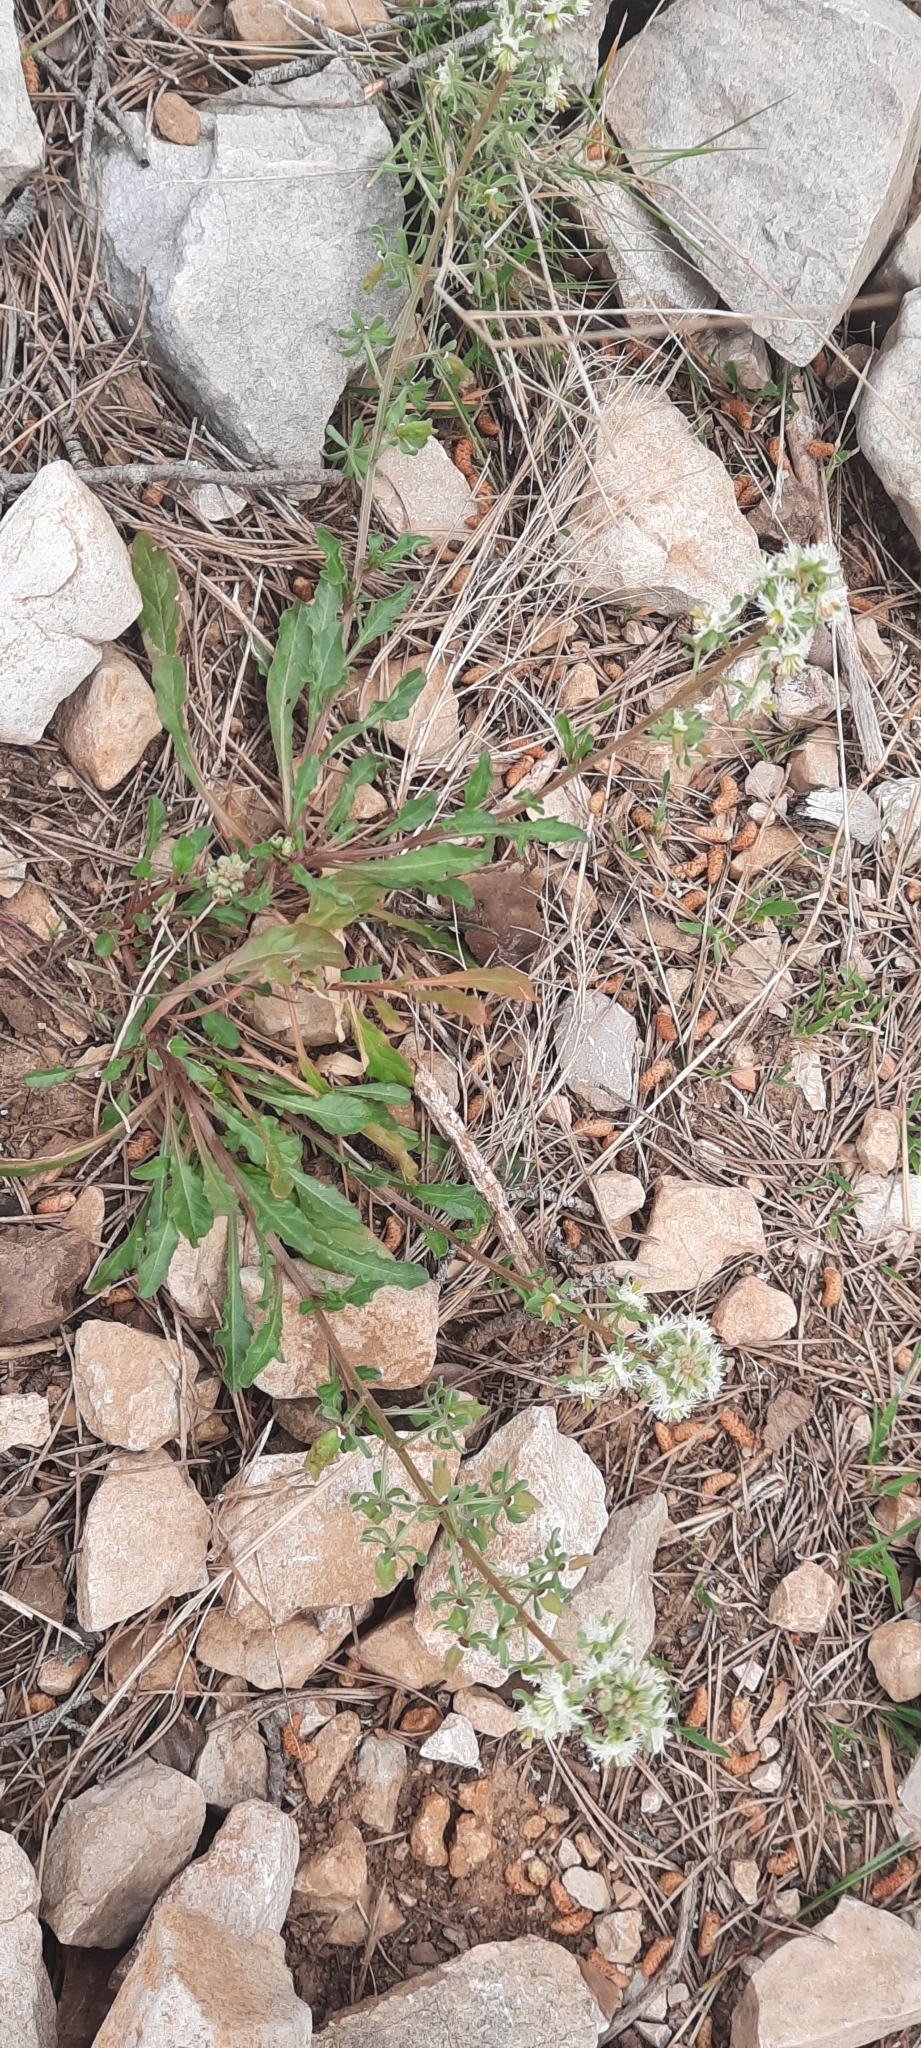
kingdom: Plantae
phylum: Tracheophyta
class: Magnoliopsida
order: Brassicales
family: Resedaceae
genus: Reseda
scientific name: Reseda phyteuma
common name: Corn mignonette
